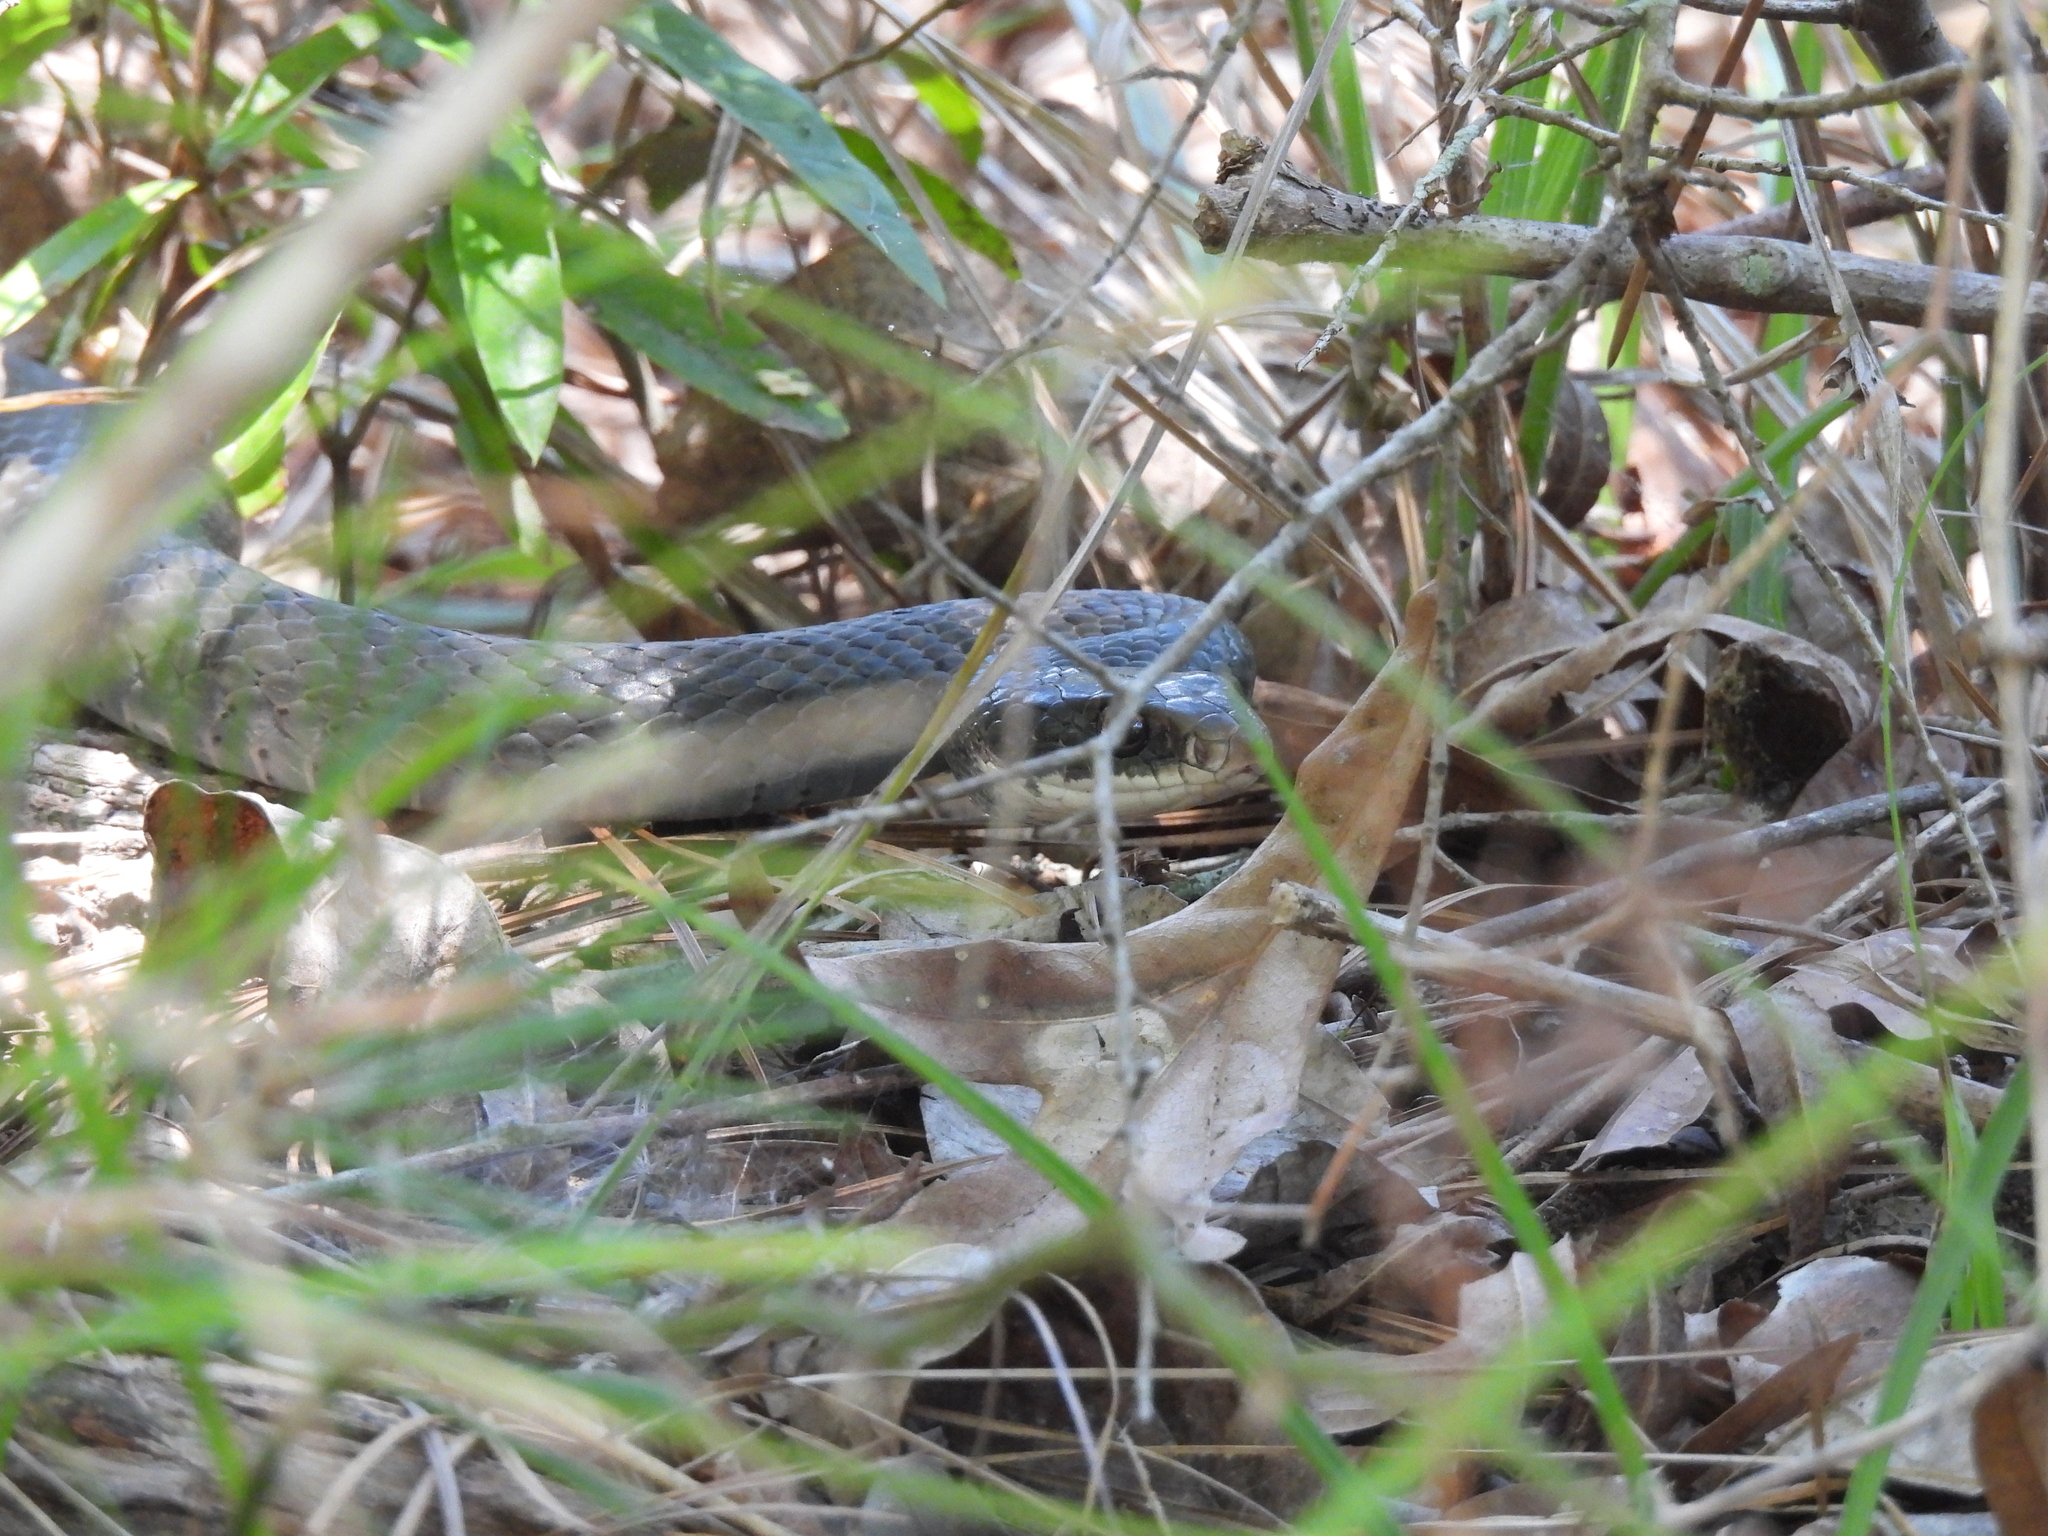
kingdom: Animalia
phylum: Chordata
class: Squamata
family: Colubridae
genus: Coluber
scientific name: Coluber constrictor
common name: Eastern racer
